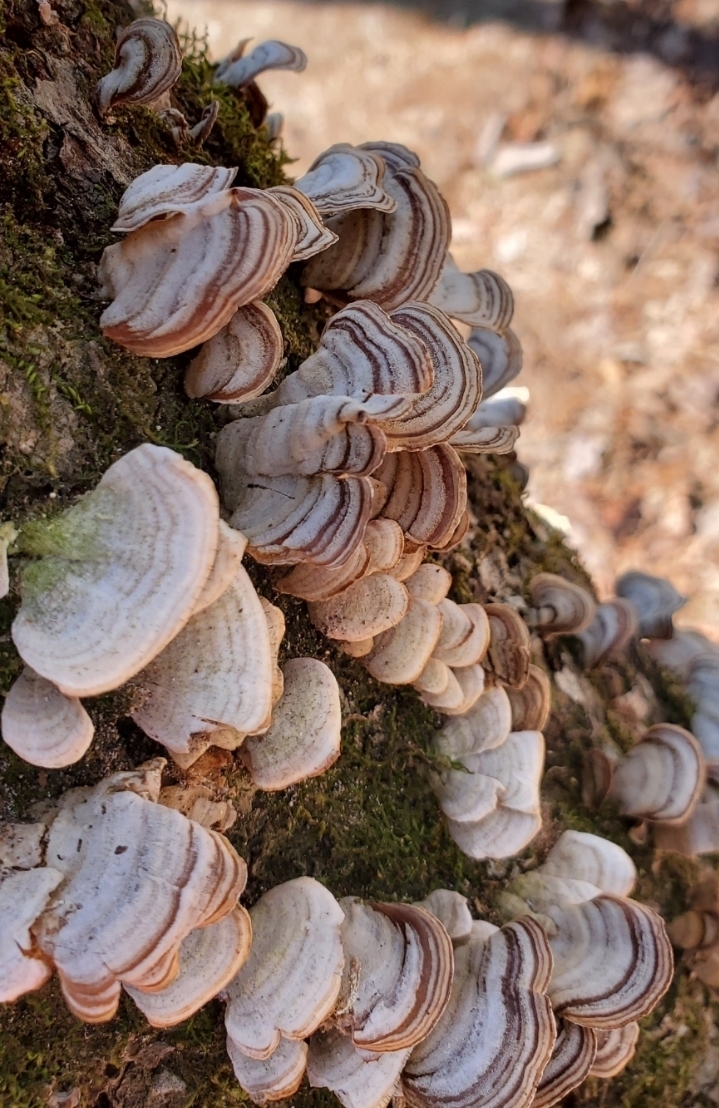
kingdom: Fungi
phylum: Basidiomycota
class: Agaricomycetes
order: Hymenochaetales
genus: Trichaptum
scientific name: Trichaptum biforme
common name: Violet-toothed polypore
